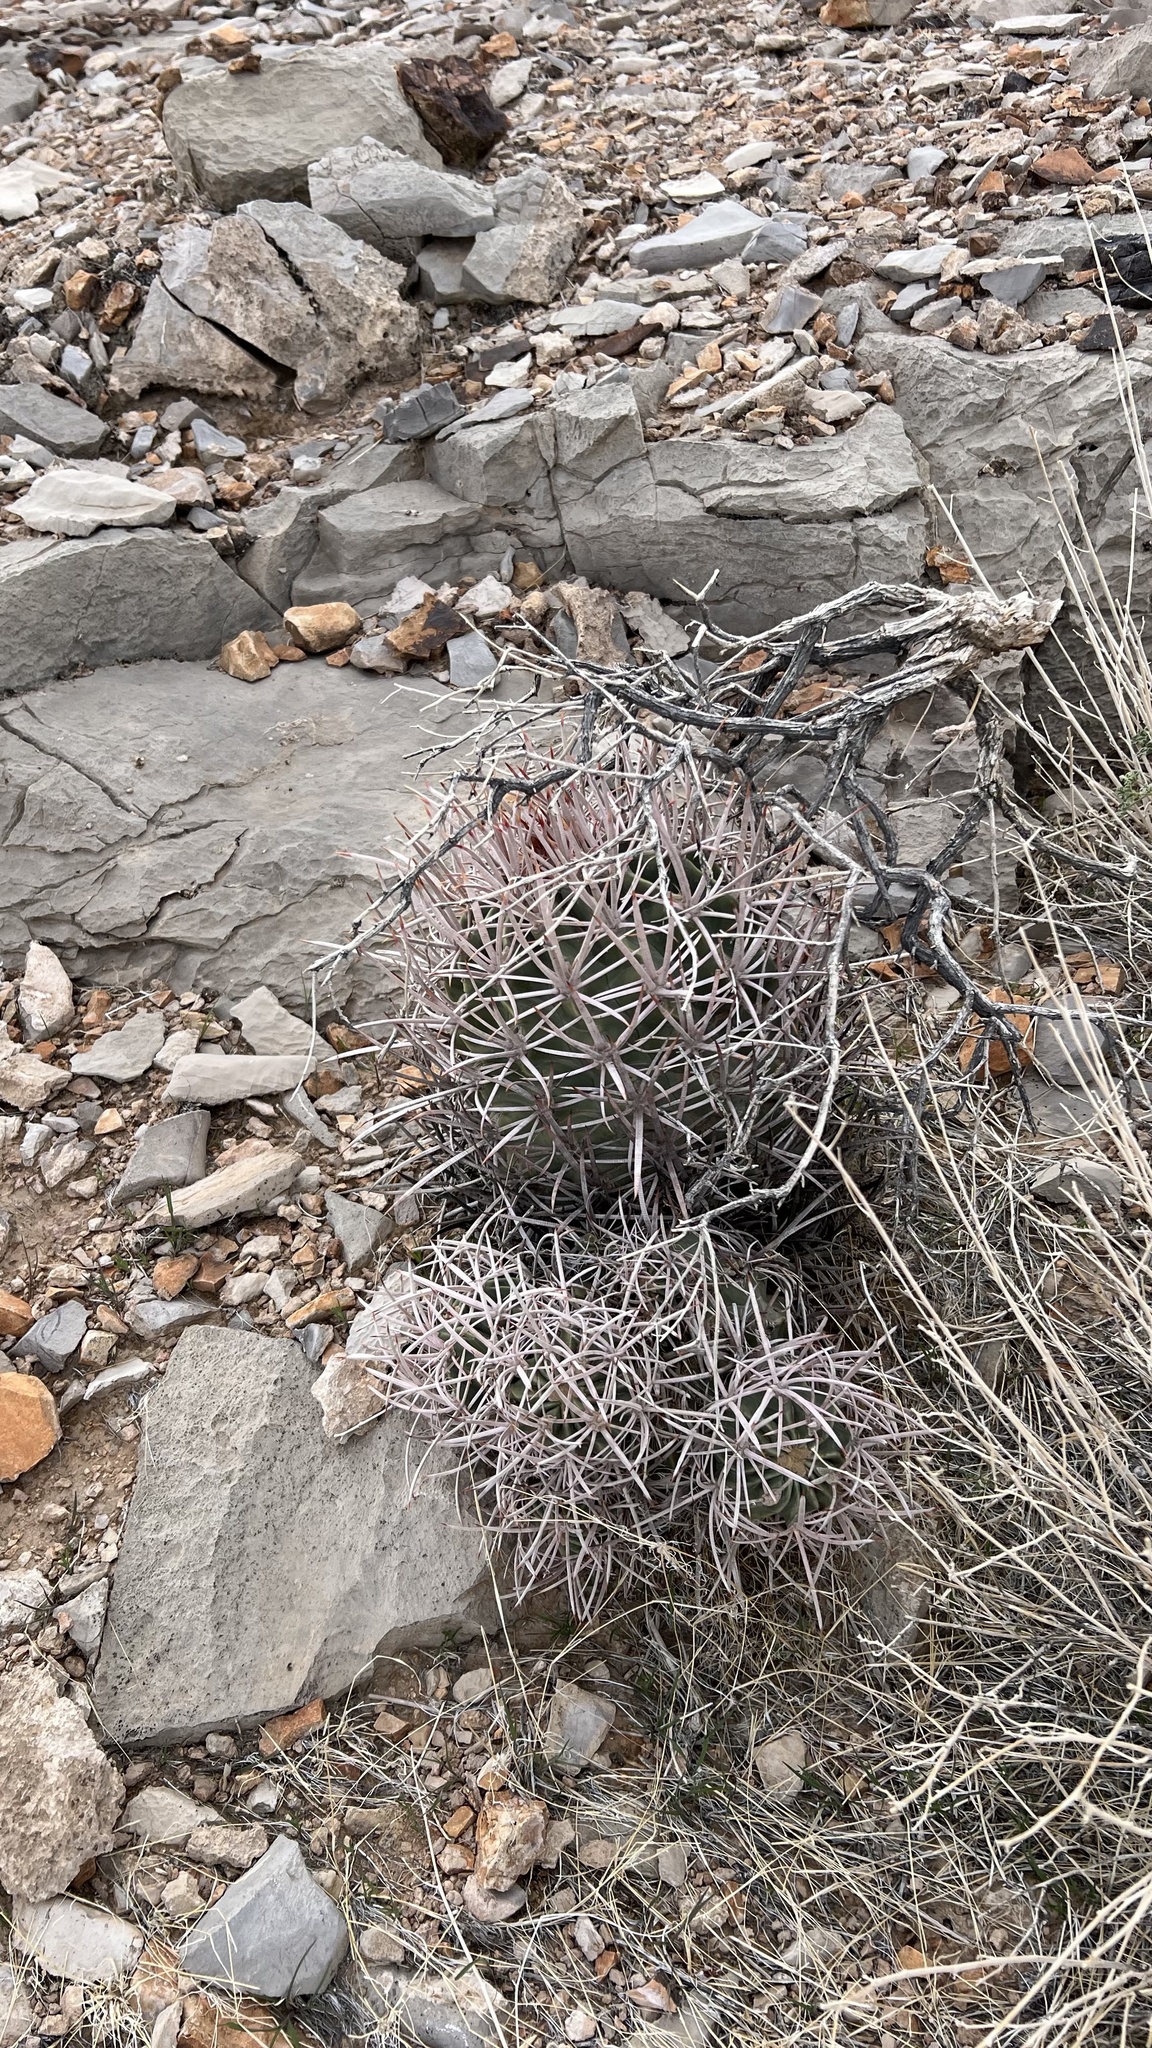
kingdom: Plantae
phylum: Tracheophyta
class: Magnoliopsida
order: Caryophyllales
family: Cactaceae
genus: Echinocactus
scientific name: Echinocactus polycephalus
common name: Cottontop cactus
